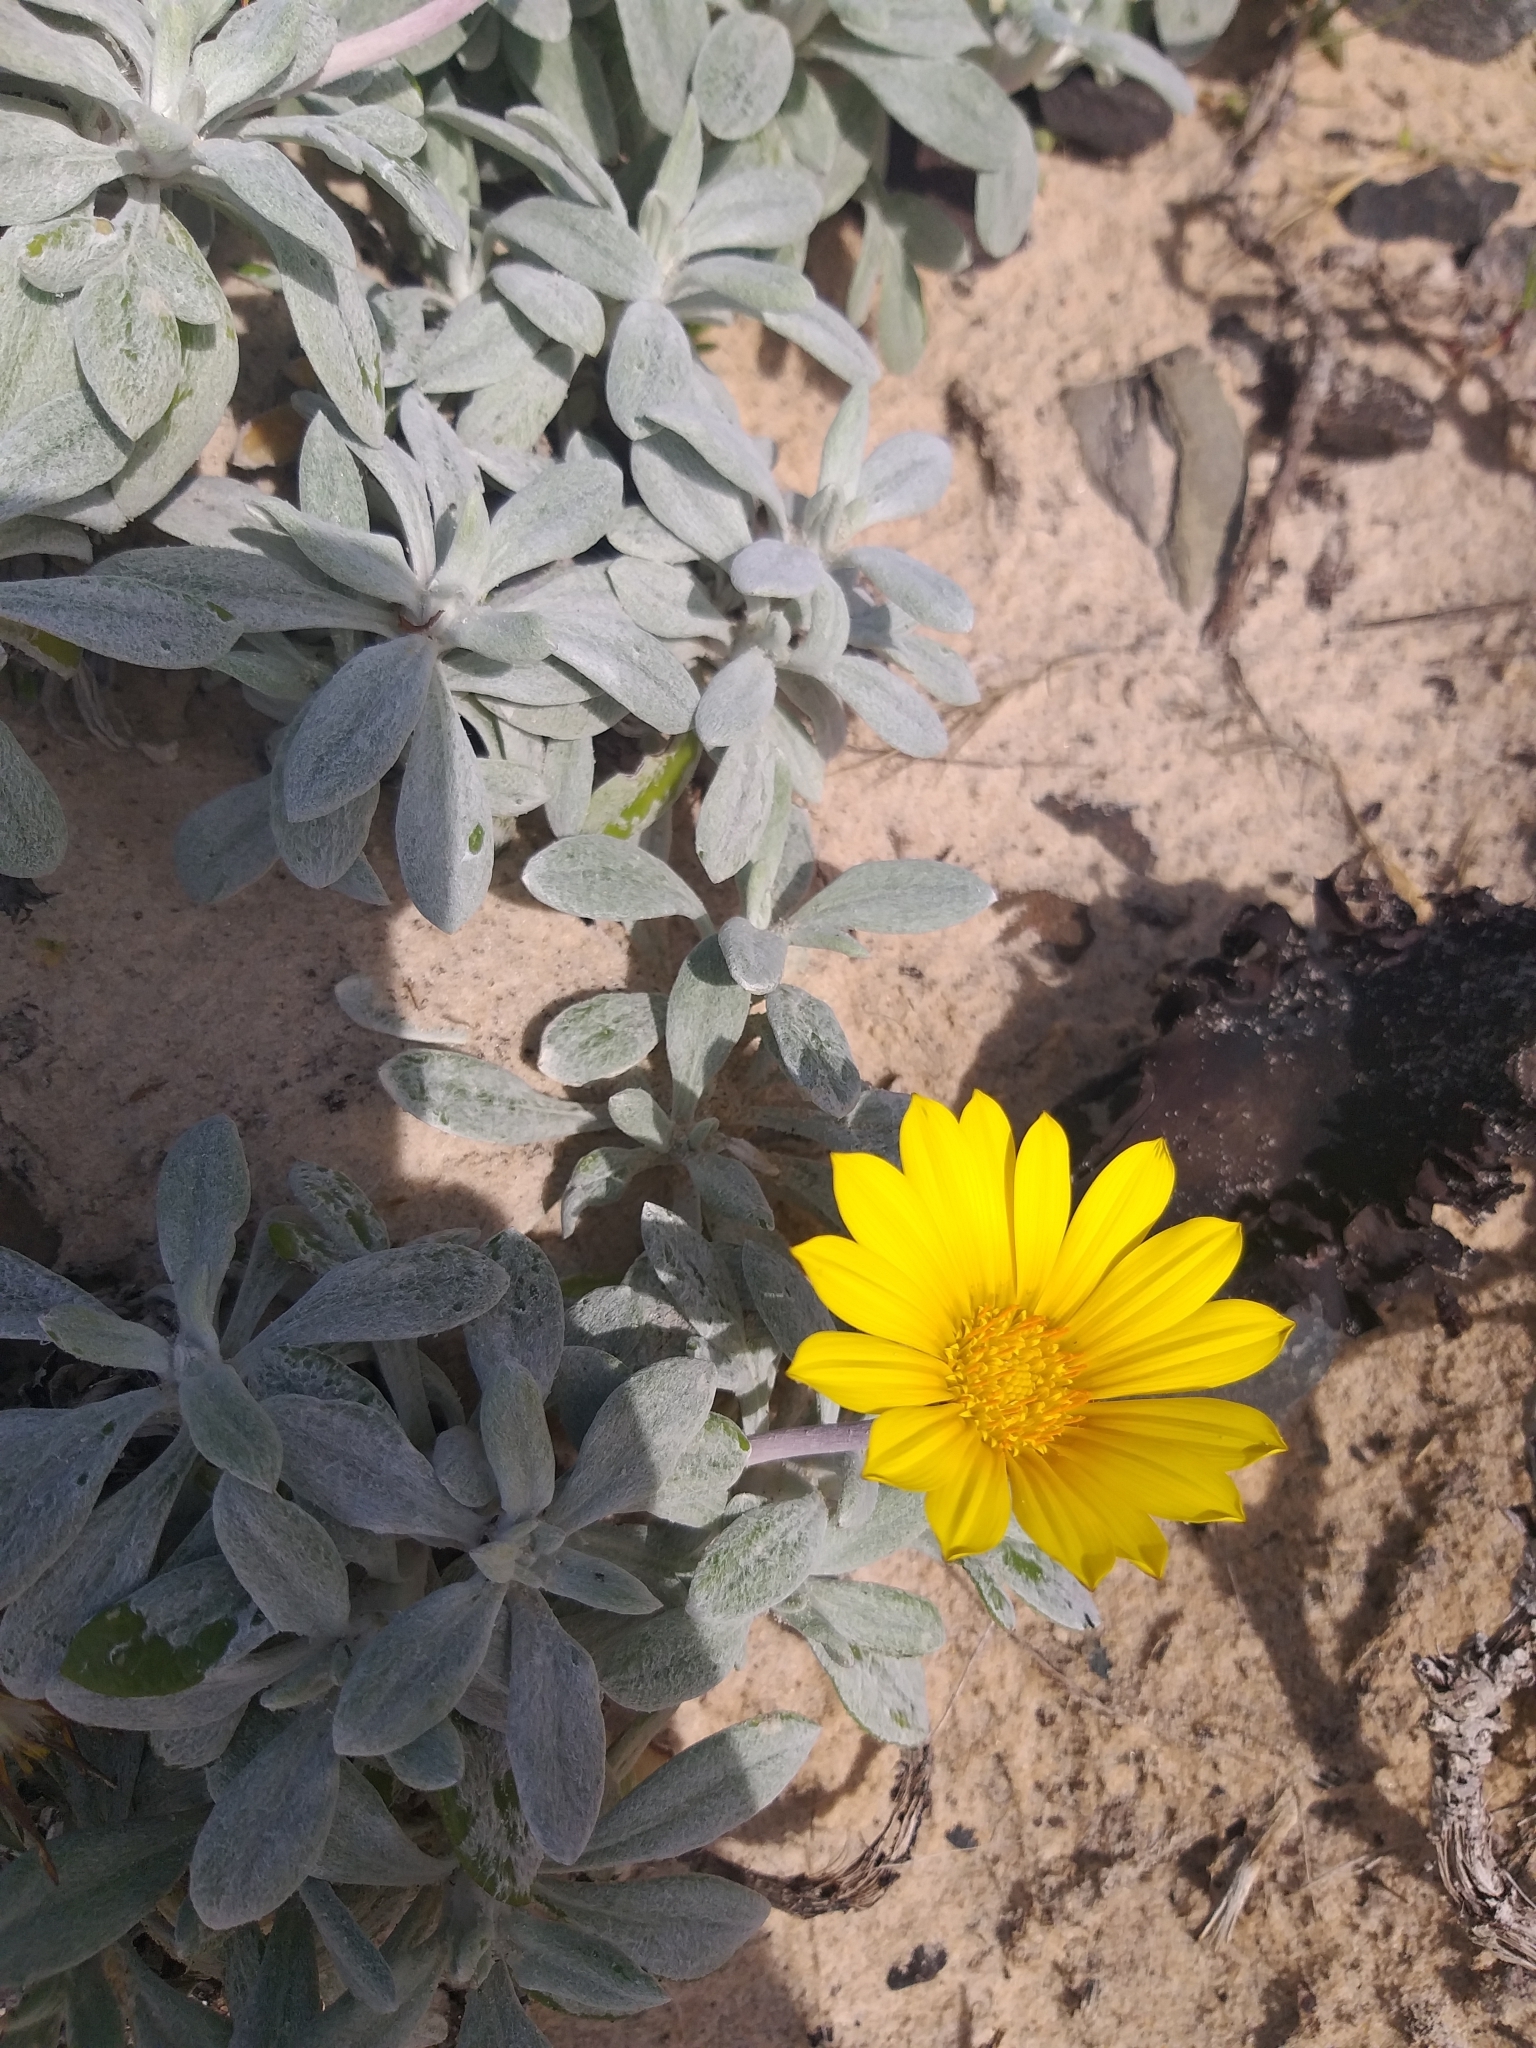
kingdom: Plantae
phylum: Tracheophyta
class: Magnoliopsida
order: Asterales
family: Asteraceae
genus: Gazania
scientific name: Gazania rigens
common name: Treasureflower
